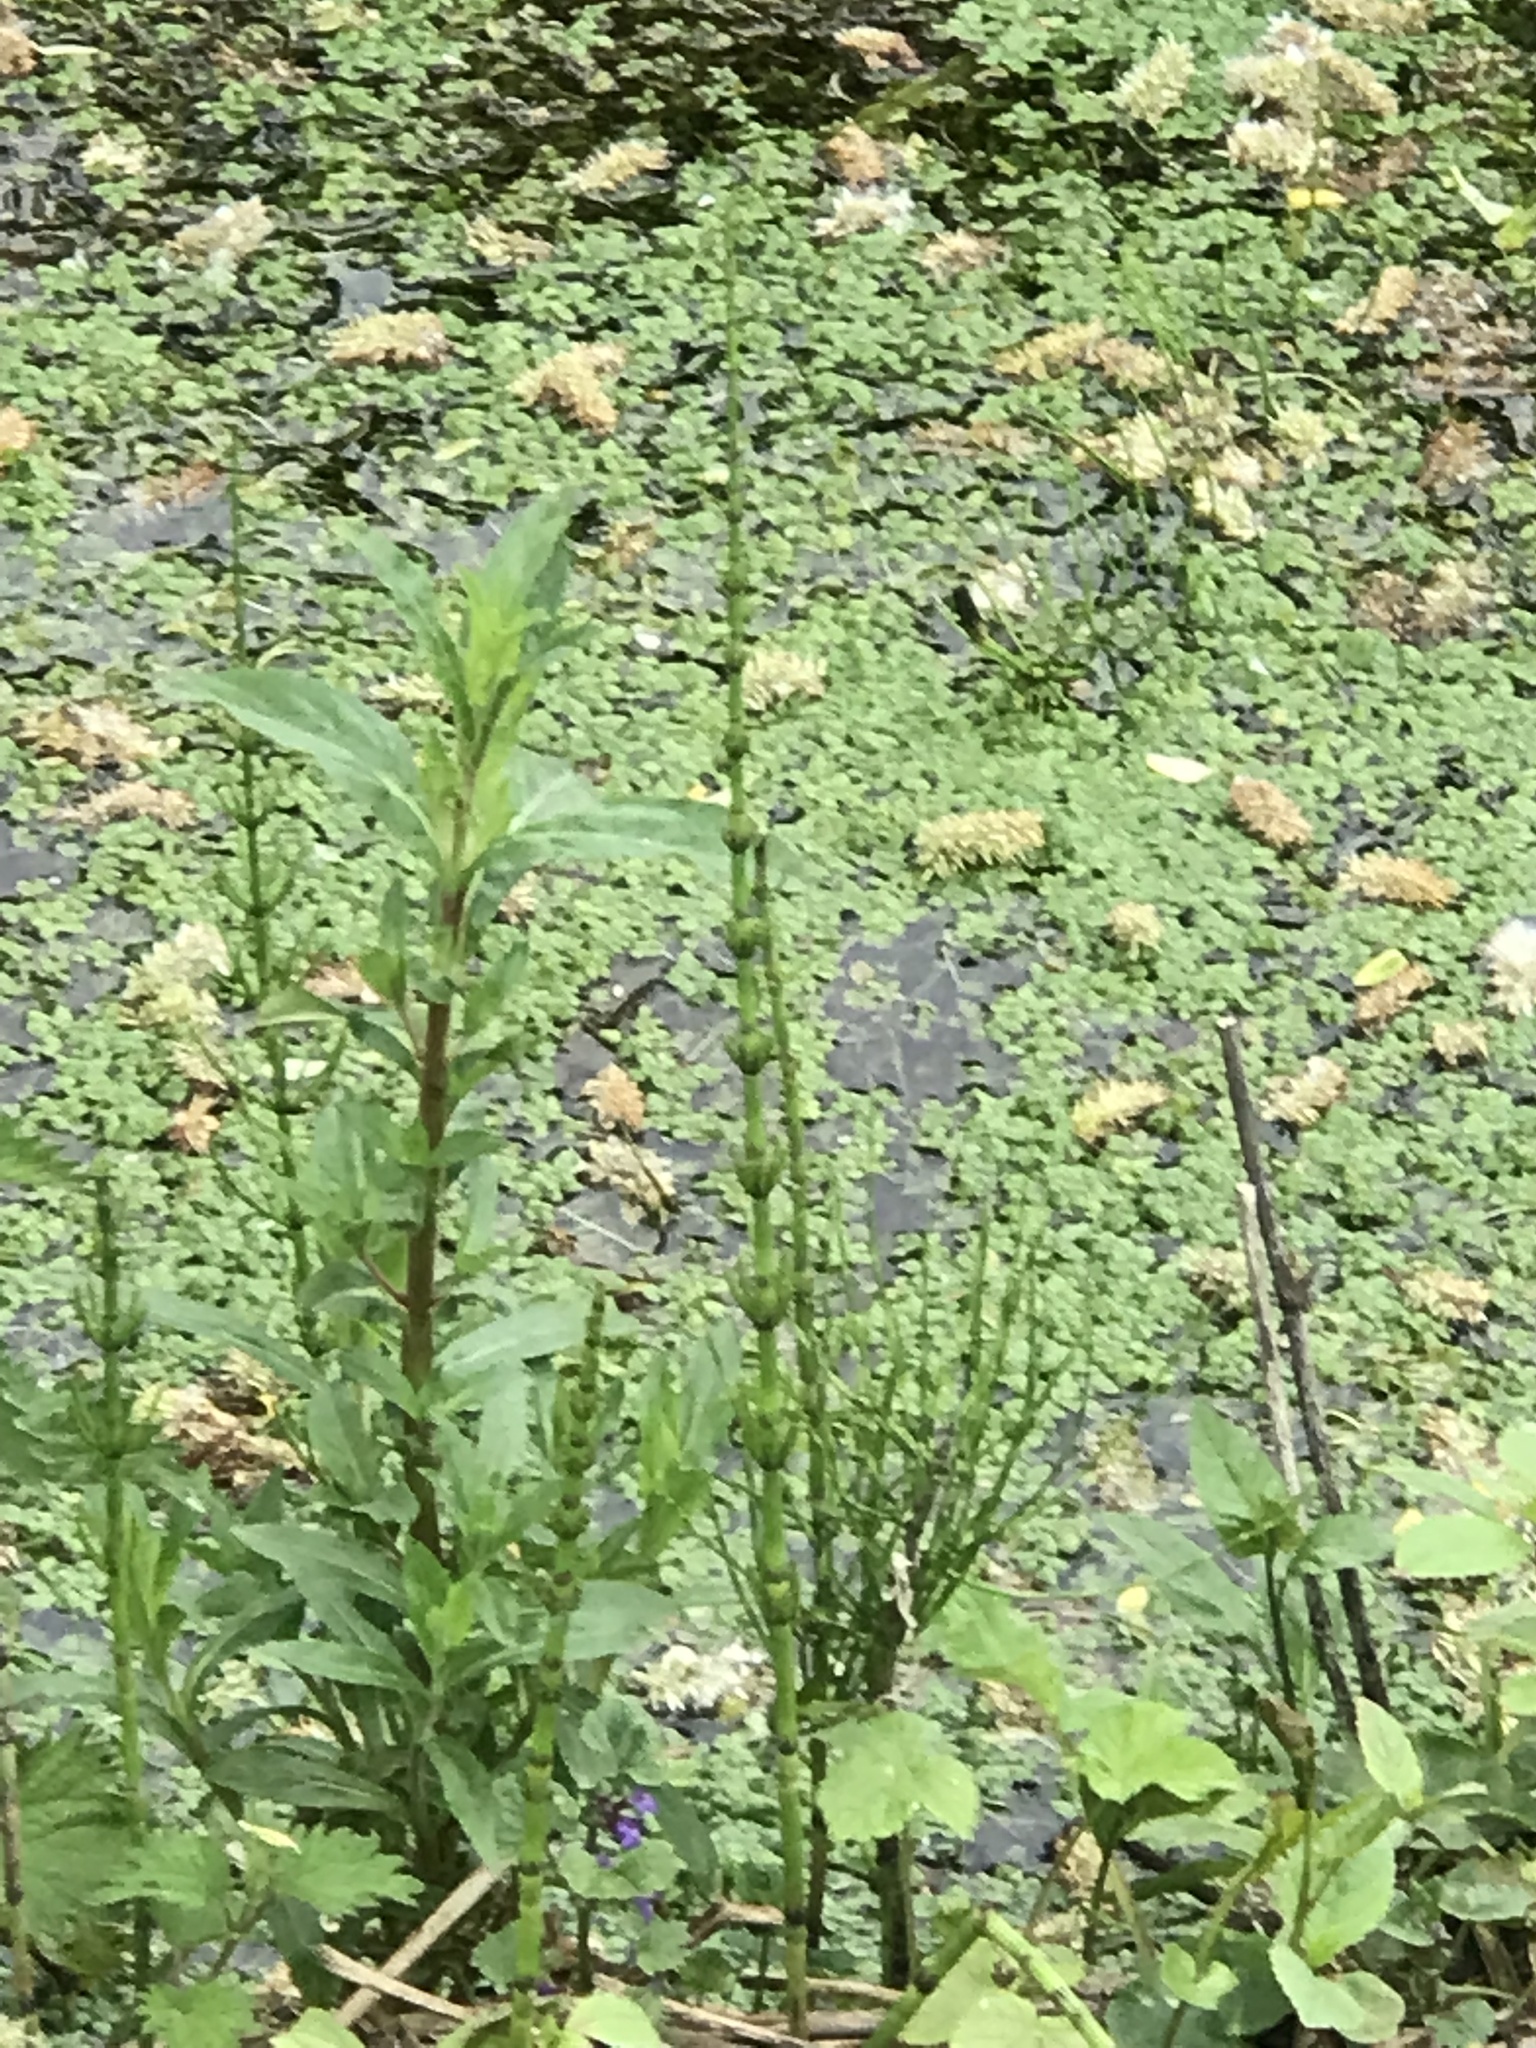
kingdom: Plantae
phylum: Tracheophyta
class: Polypodiopsida
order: Equisetales
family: Equisetaceae
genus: Equisetum
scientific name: Equisetum palustre
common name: Marsh horsetail
